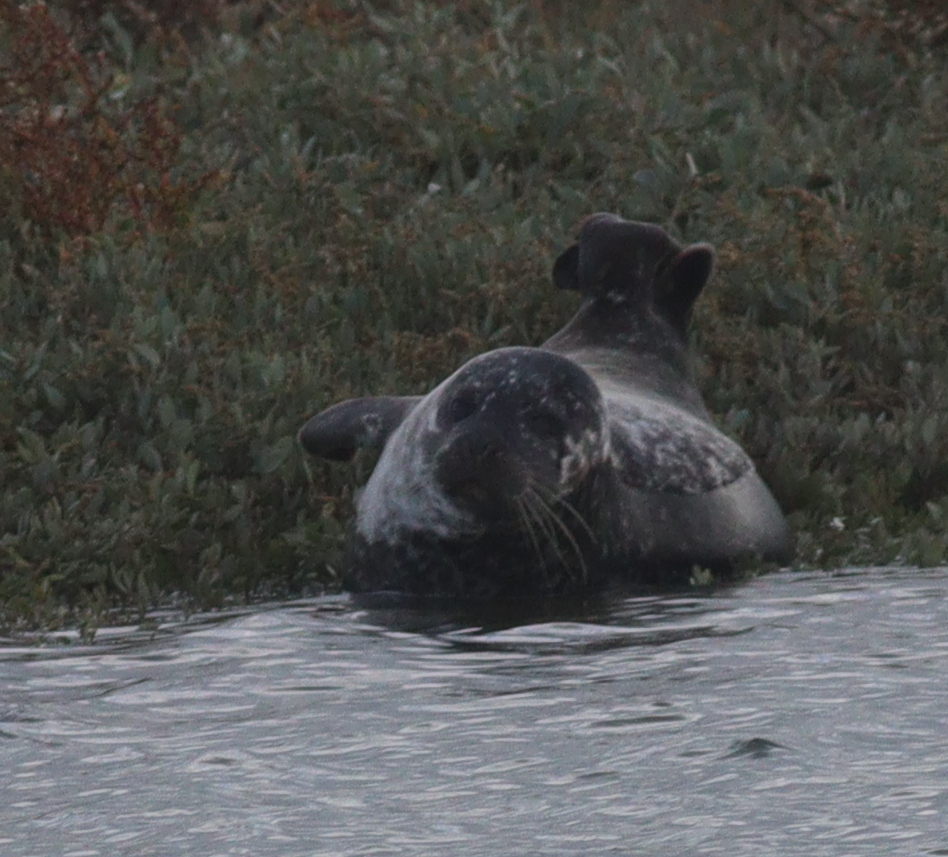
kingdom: Animalia
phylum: Chordata
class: Mammalia
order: Carnivora
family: Phocidae
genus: Phoca
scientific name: Phoca vitulina
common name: Harbor seal
